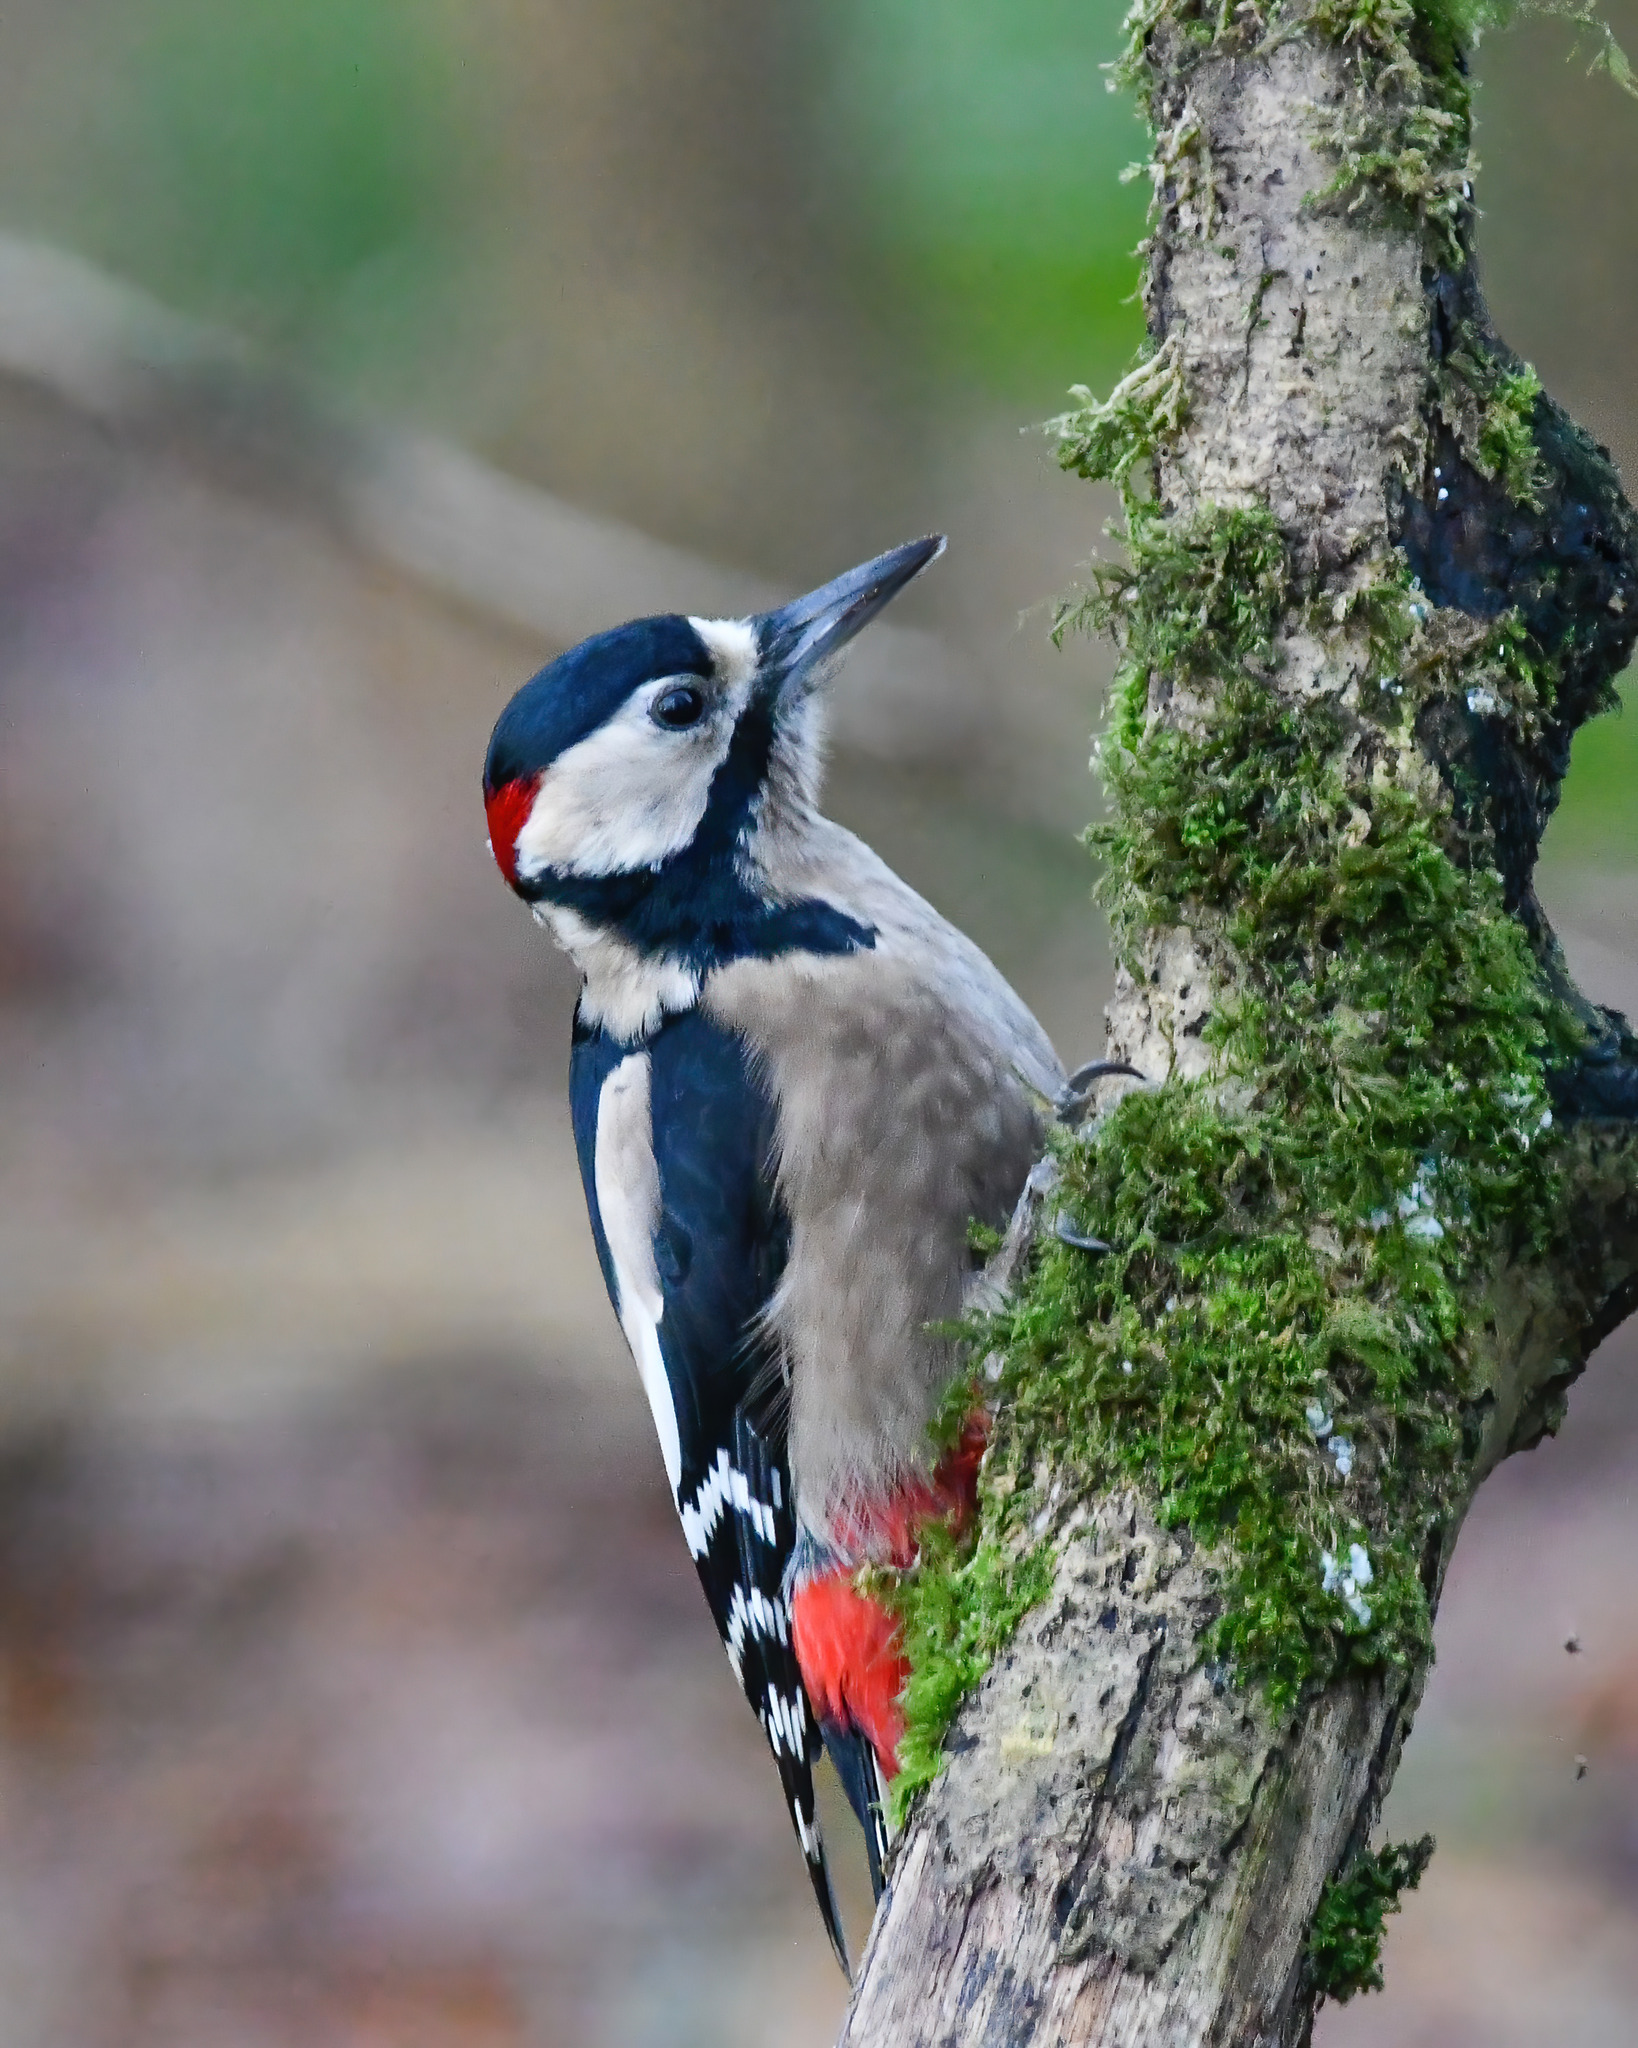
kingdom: Animalia
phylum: Chordata
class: Aves
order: Piciformes
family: Picidae
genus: Dendrocopos
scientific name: Dendrocopos major
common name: Great spotted woodpecker
